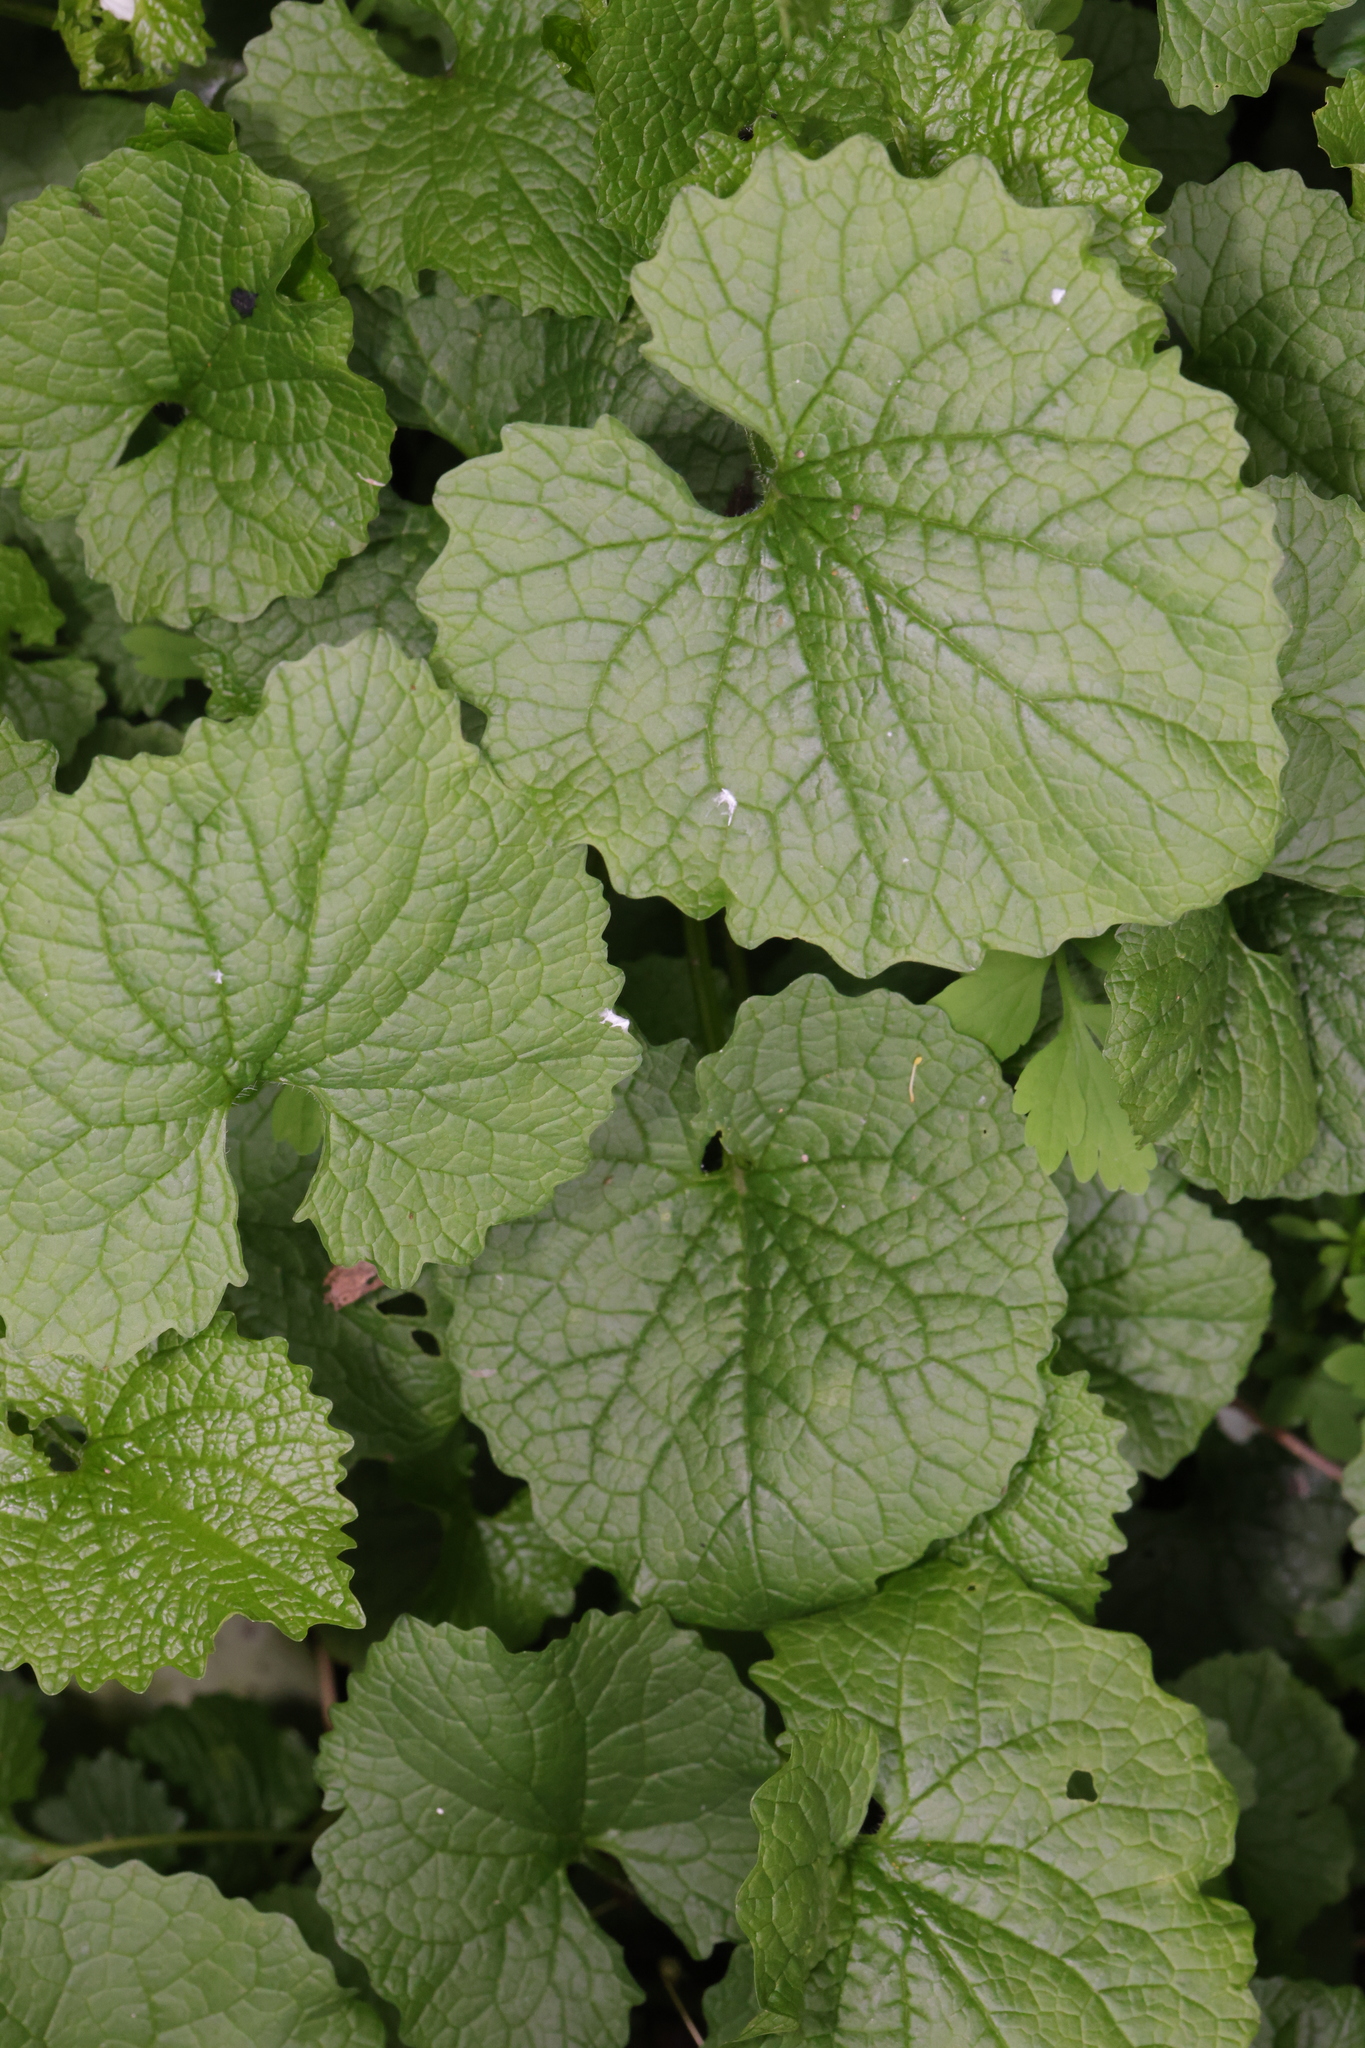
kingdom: Plantae
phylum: Tracheophyta
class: Magnoliopsida
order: Brassicales
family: Brassicaceae
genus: Alliaria
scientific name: Alliaria petiolata
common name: Garlic mustard
